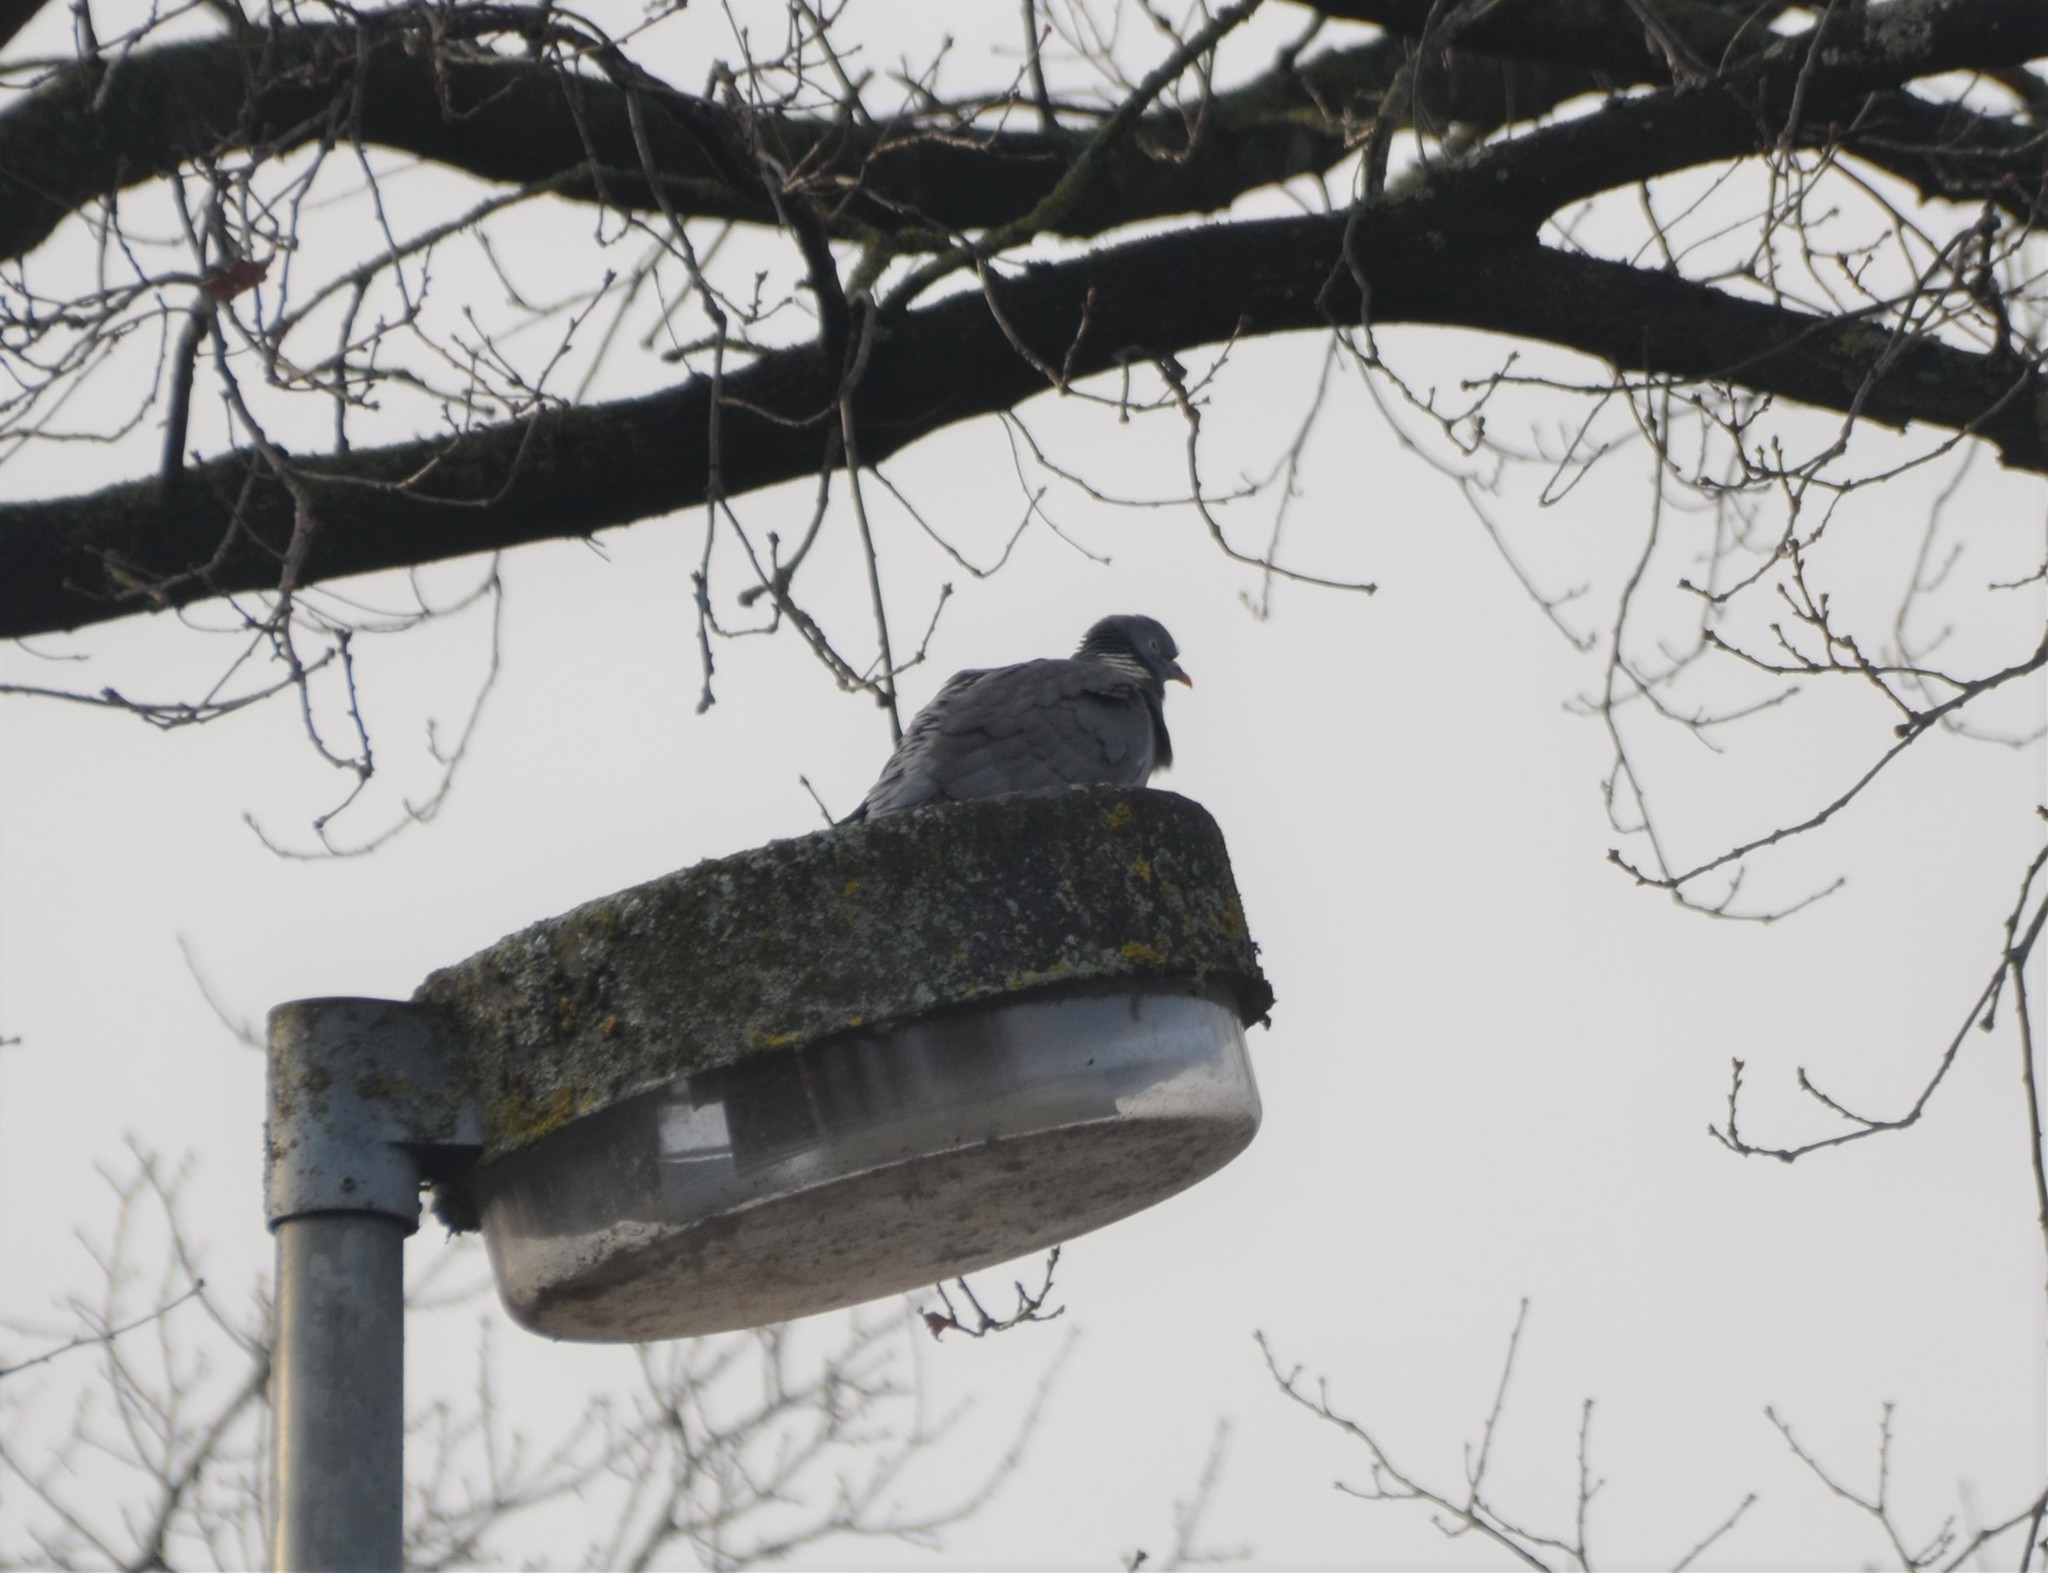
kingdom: Animalia
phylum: Chordata
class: Aves
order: Columbiformes
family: Columbidae
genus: Columba
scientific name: Columba palumbus
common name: Common wood pigeon
